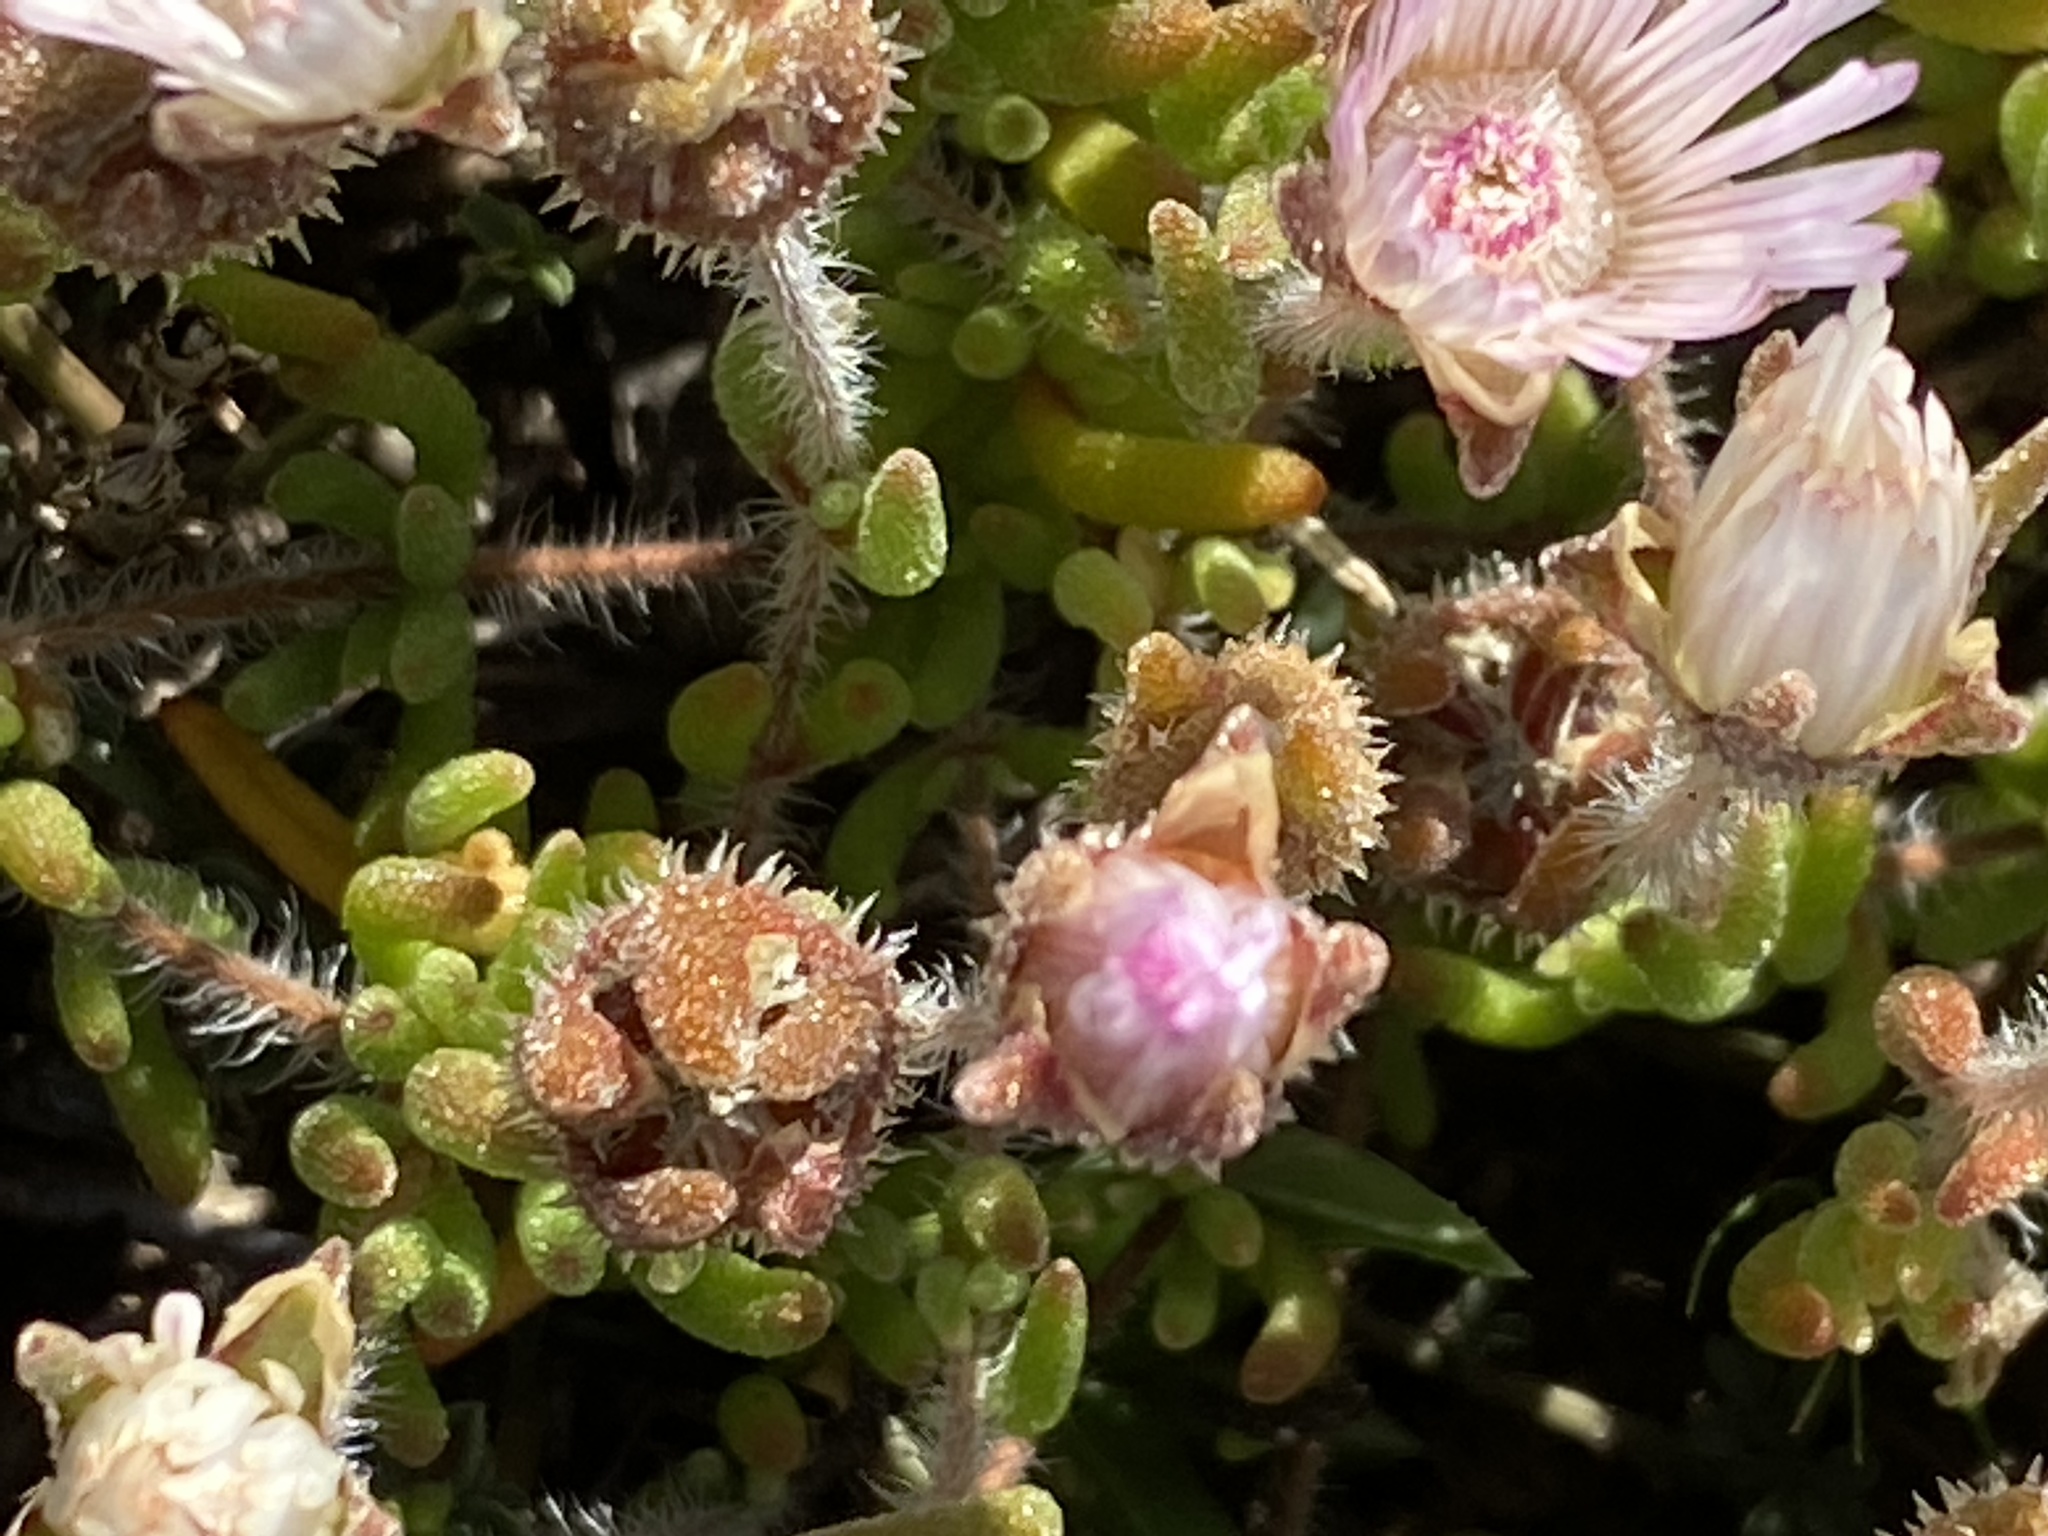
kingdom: Plantae
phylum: Tracheophyta
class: Magnoliopsida
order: Caryophyllales
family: Aizoaceae
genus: Drosanthemum
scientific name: Drosanthemum striatum
